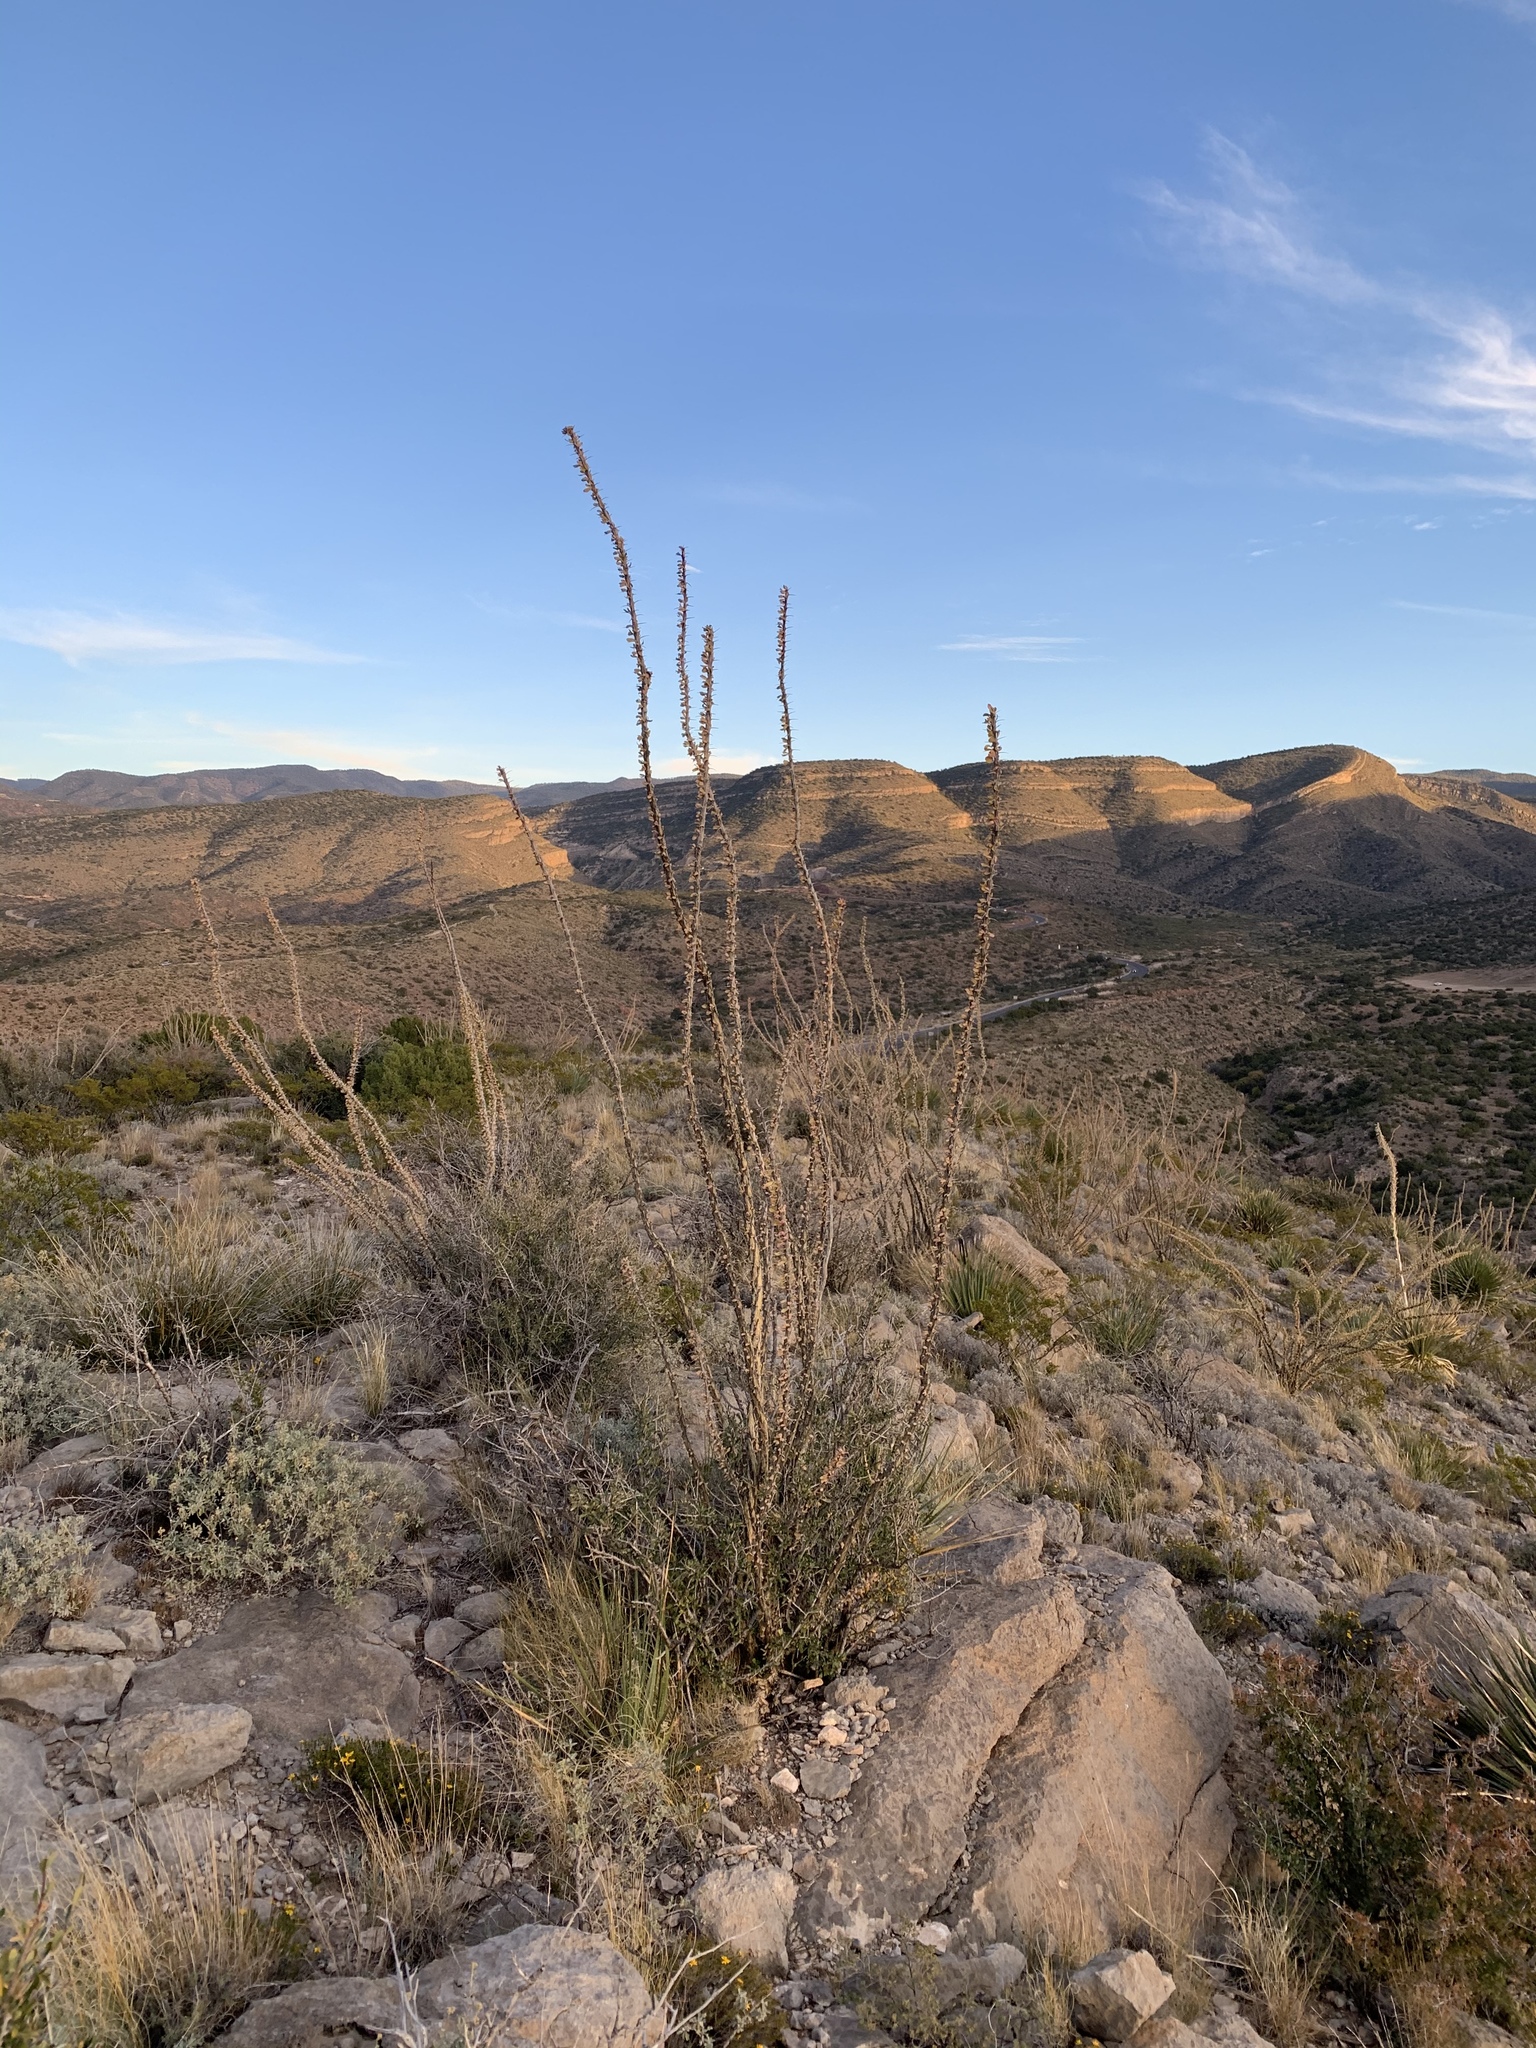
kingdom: Plantae
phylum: Tracheophyta
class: Magnoliopsida
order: Ericales
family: Fouquieriaceae
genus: Fouquieria
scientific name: Fouquieria splendens
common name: Vine-cactus
